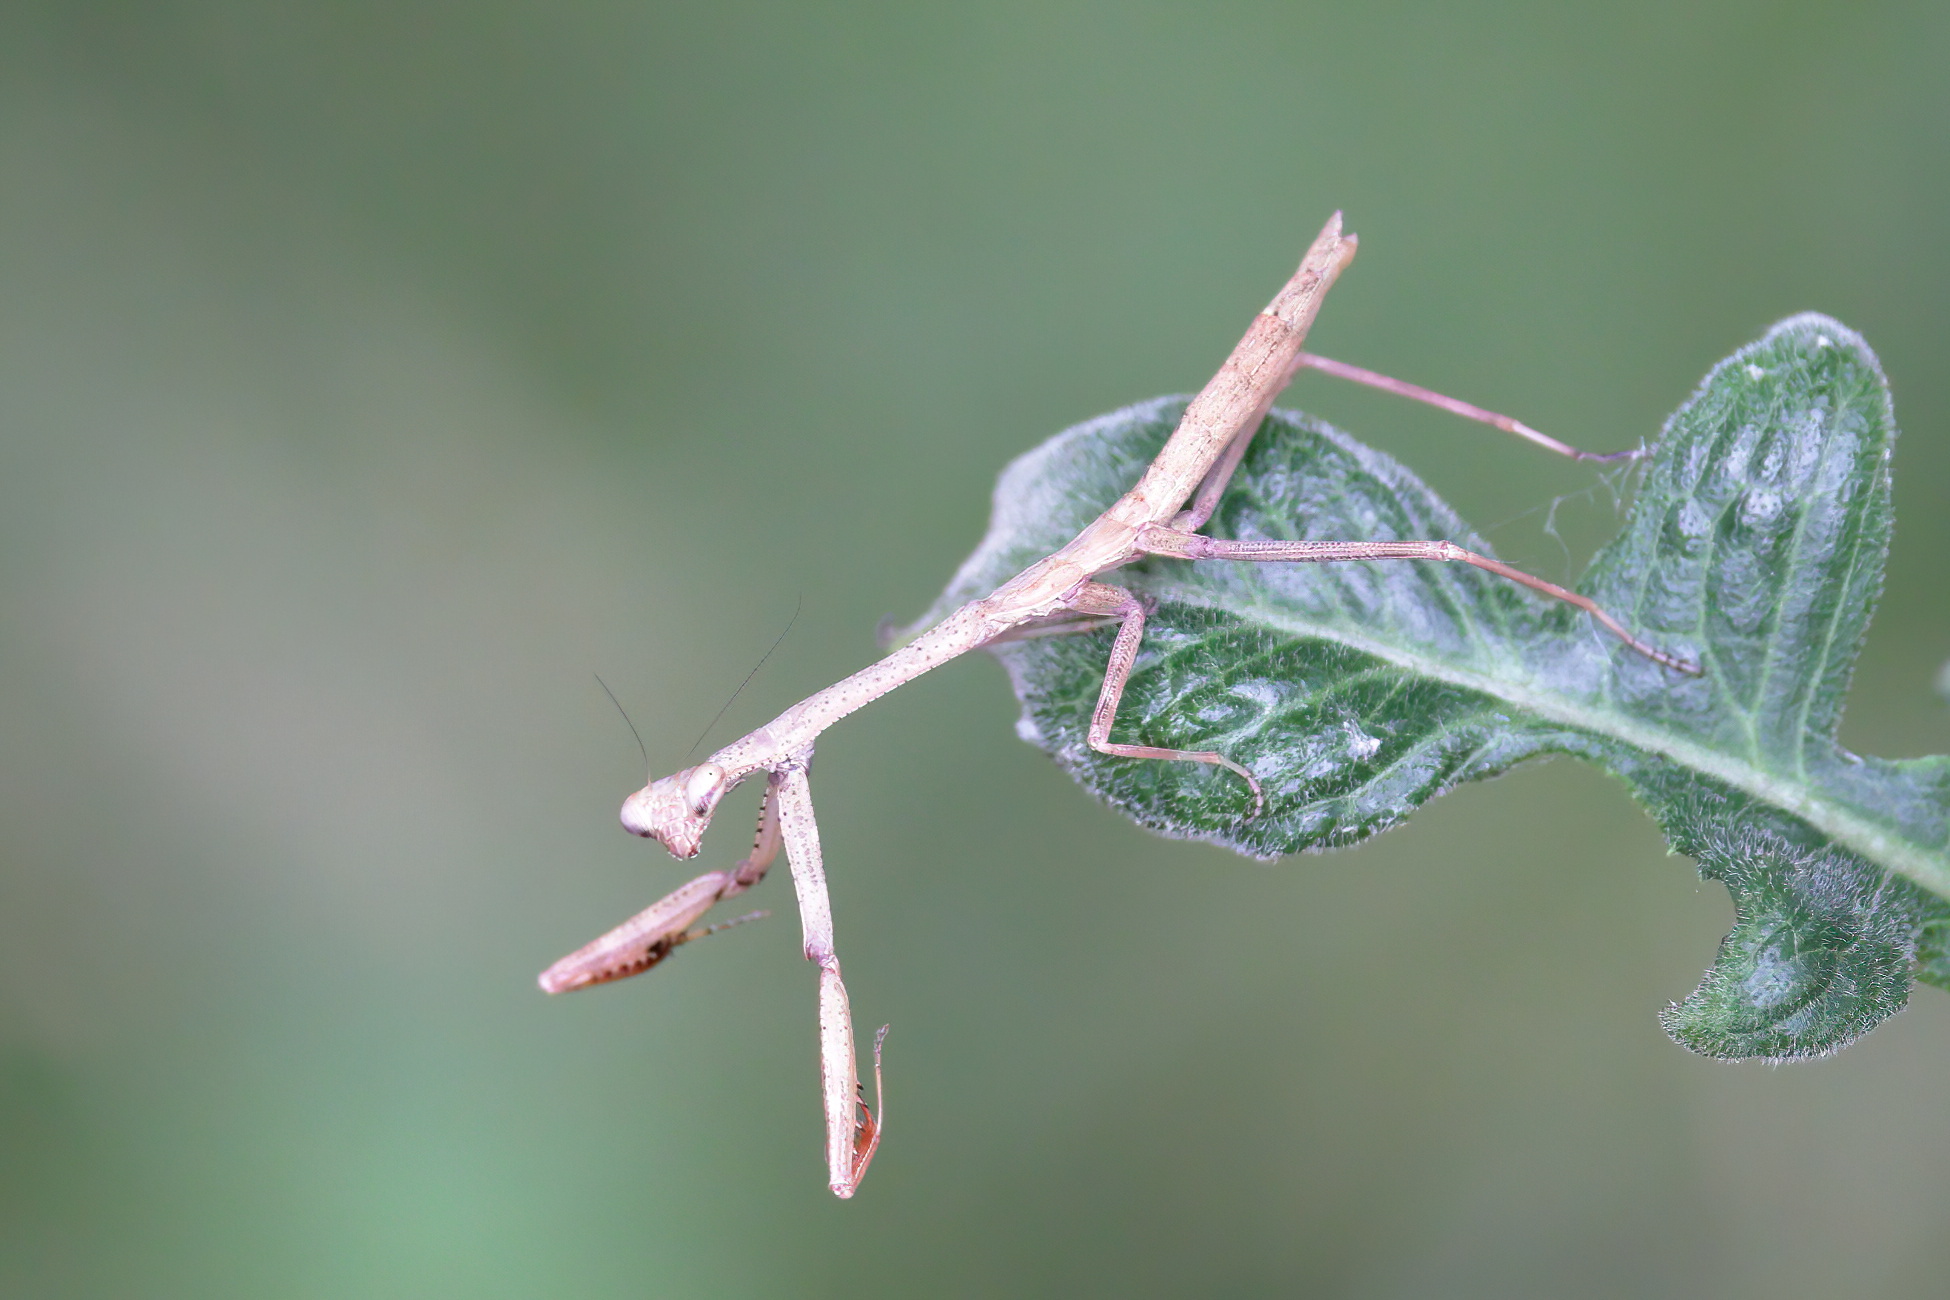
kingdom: Animalia
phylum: Arthropoda
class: Insecta
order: Mantodea
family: Mantidae
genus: Stagmomantis
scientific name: Stagmomantis carolina
